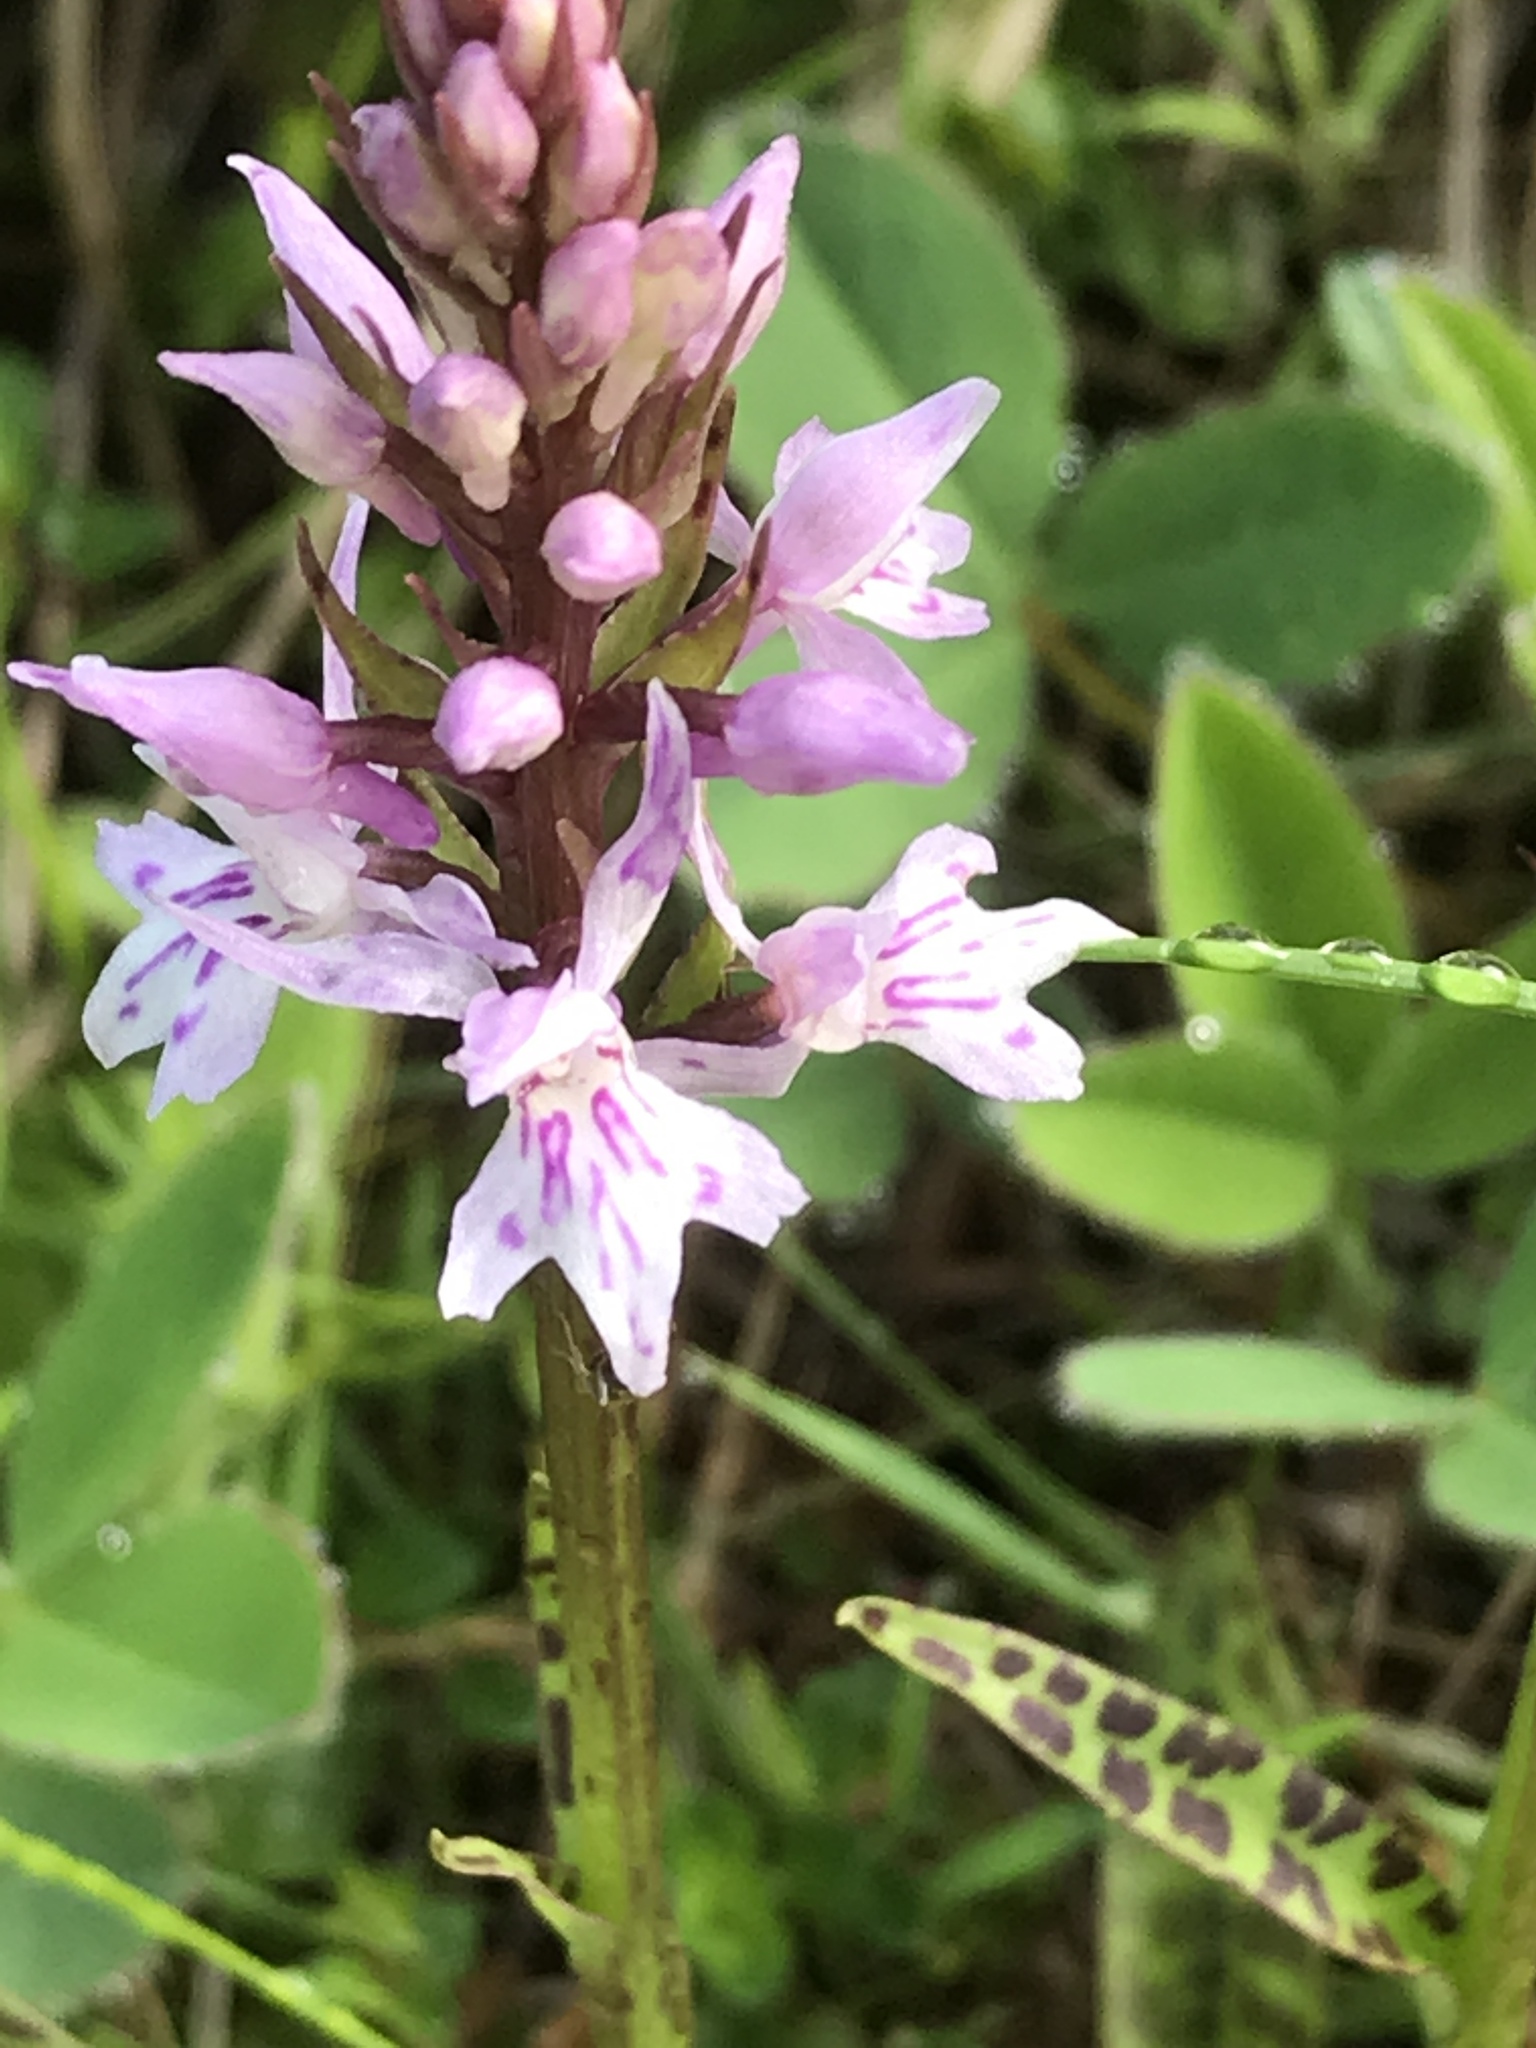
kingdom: Plantae
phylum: Tracheophyta
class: Liliopsida
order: Asparagales
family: Orchidaceae
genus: Dactylorhiza
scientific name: Dactylorhiza maculata
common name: Heath spotted-orchid
